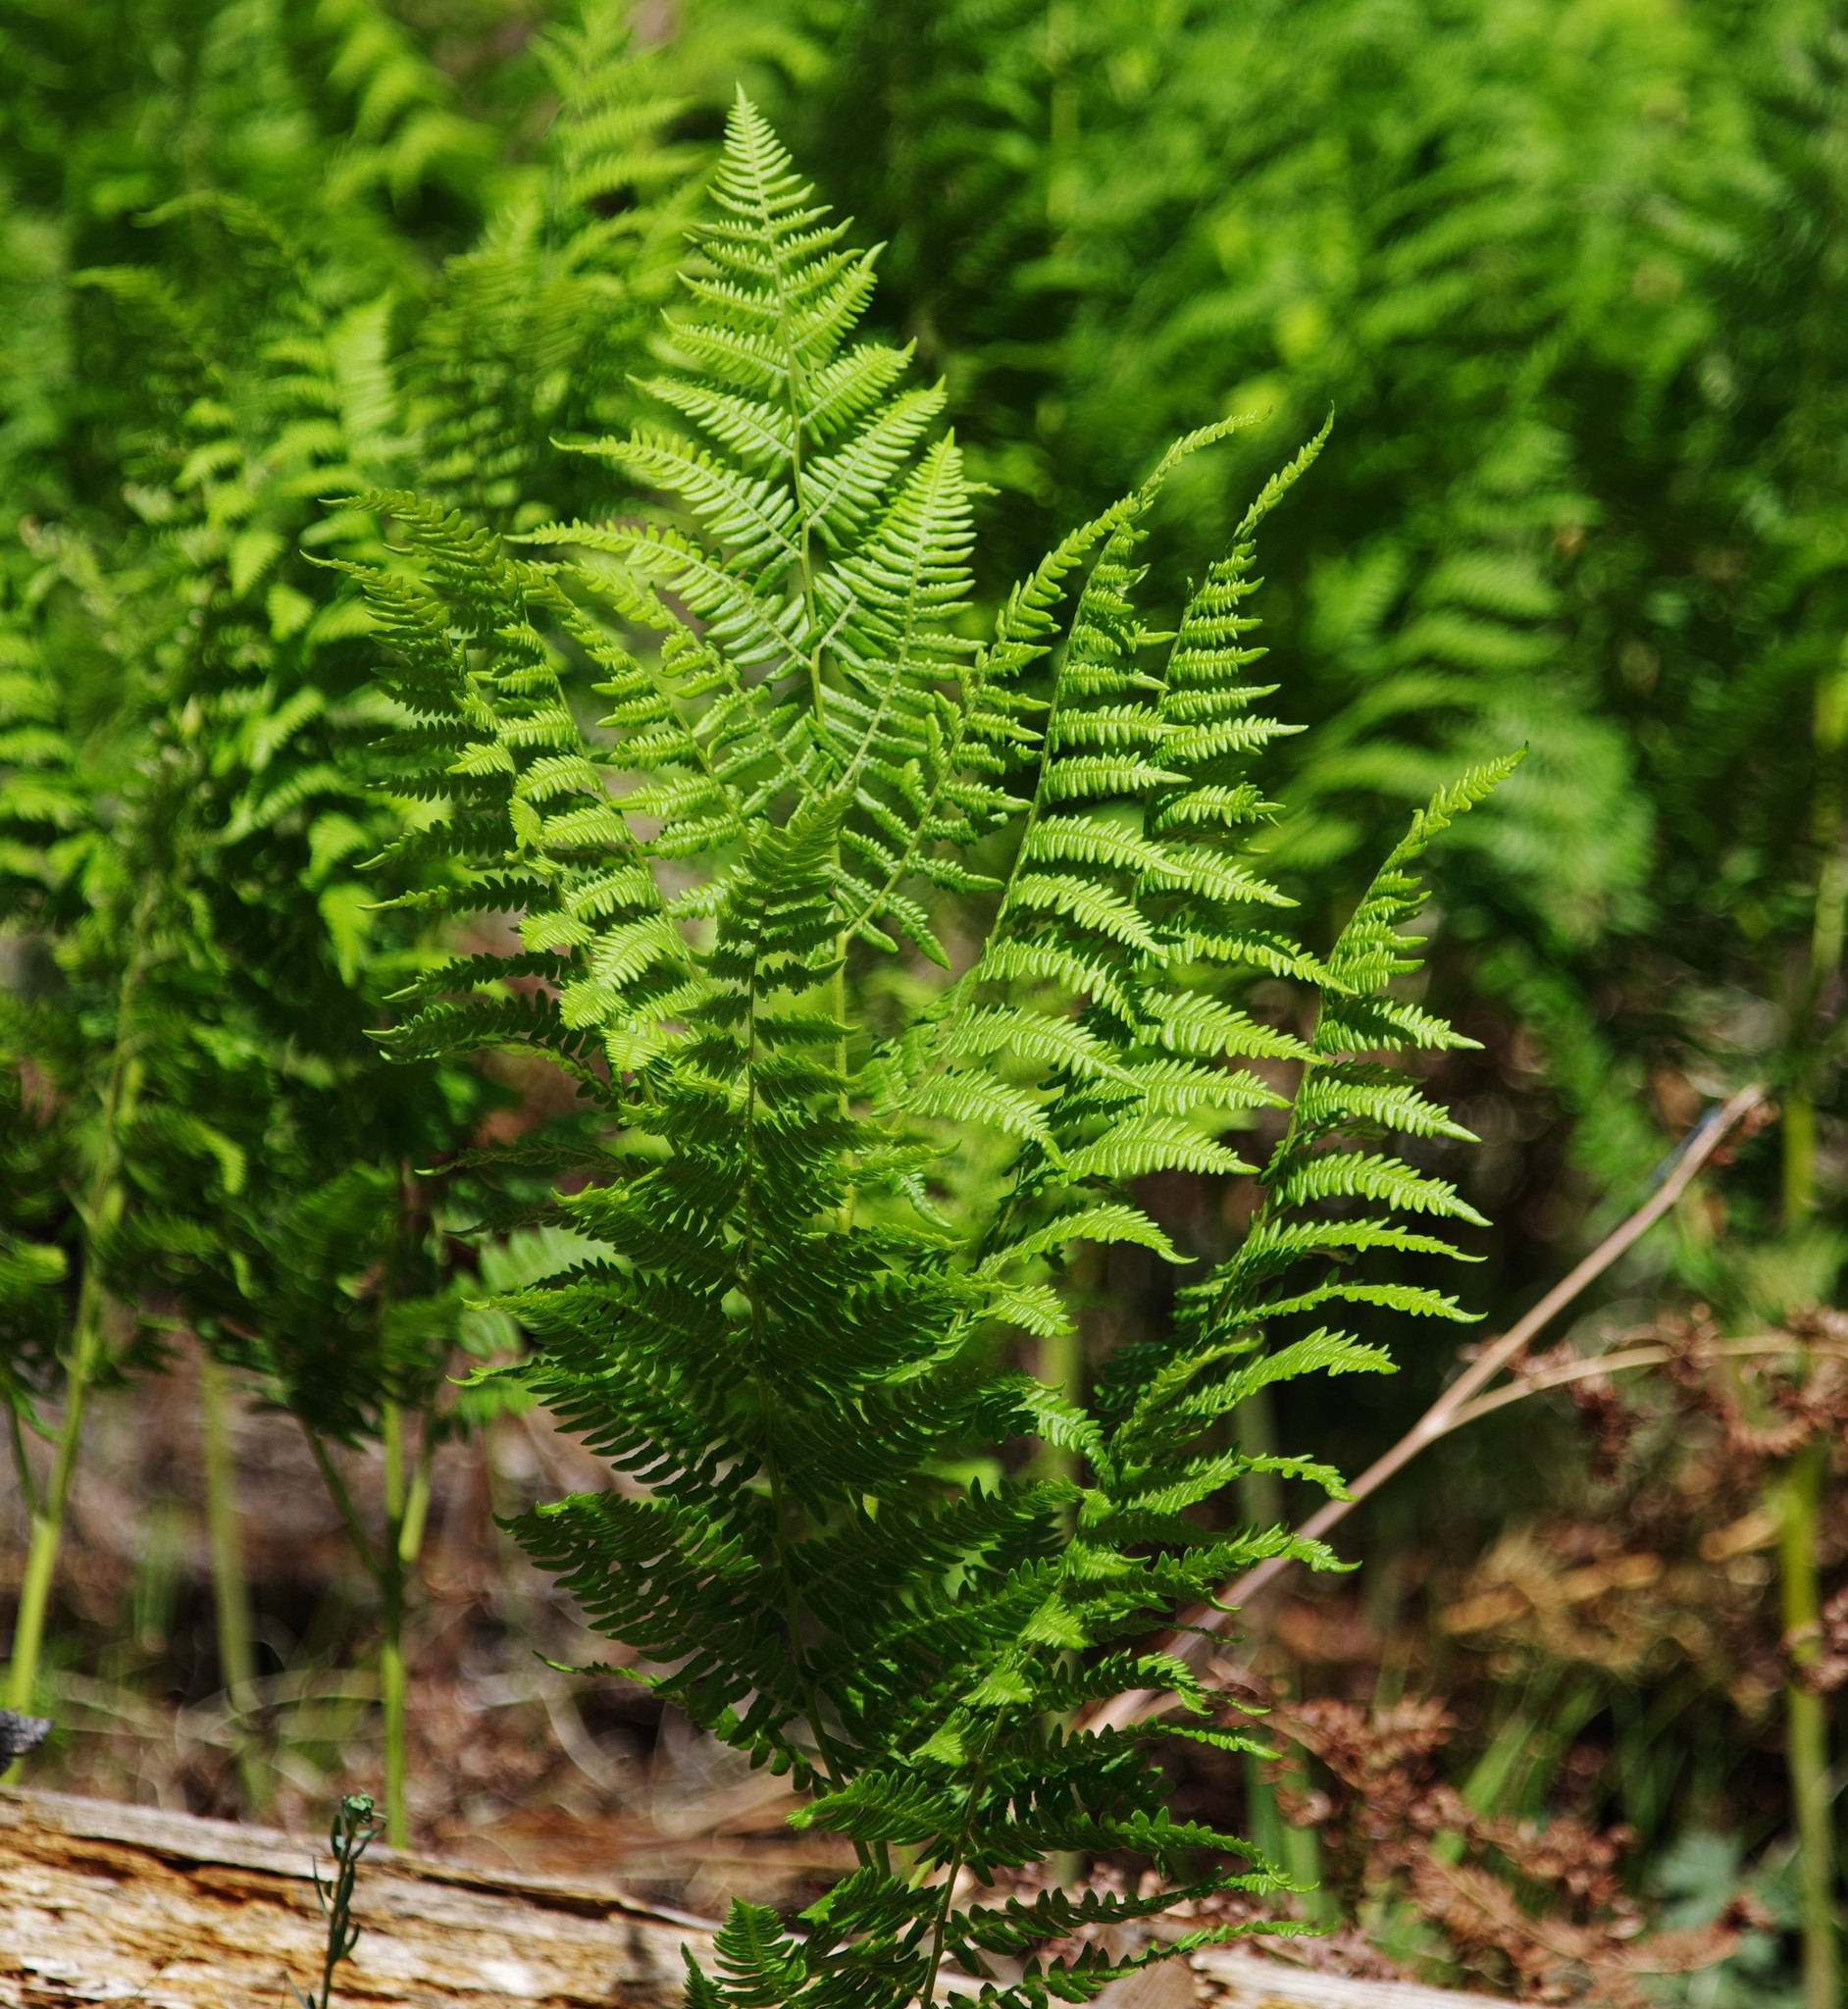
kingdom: Plantae
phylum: Tracheophyta
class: Polypodiopsida
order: Polypodiales
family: Dennstaedtiaceae
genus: Pteridium
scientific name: Pteridium aquilinum
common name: Bracken
